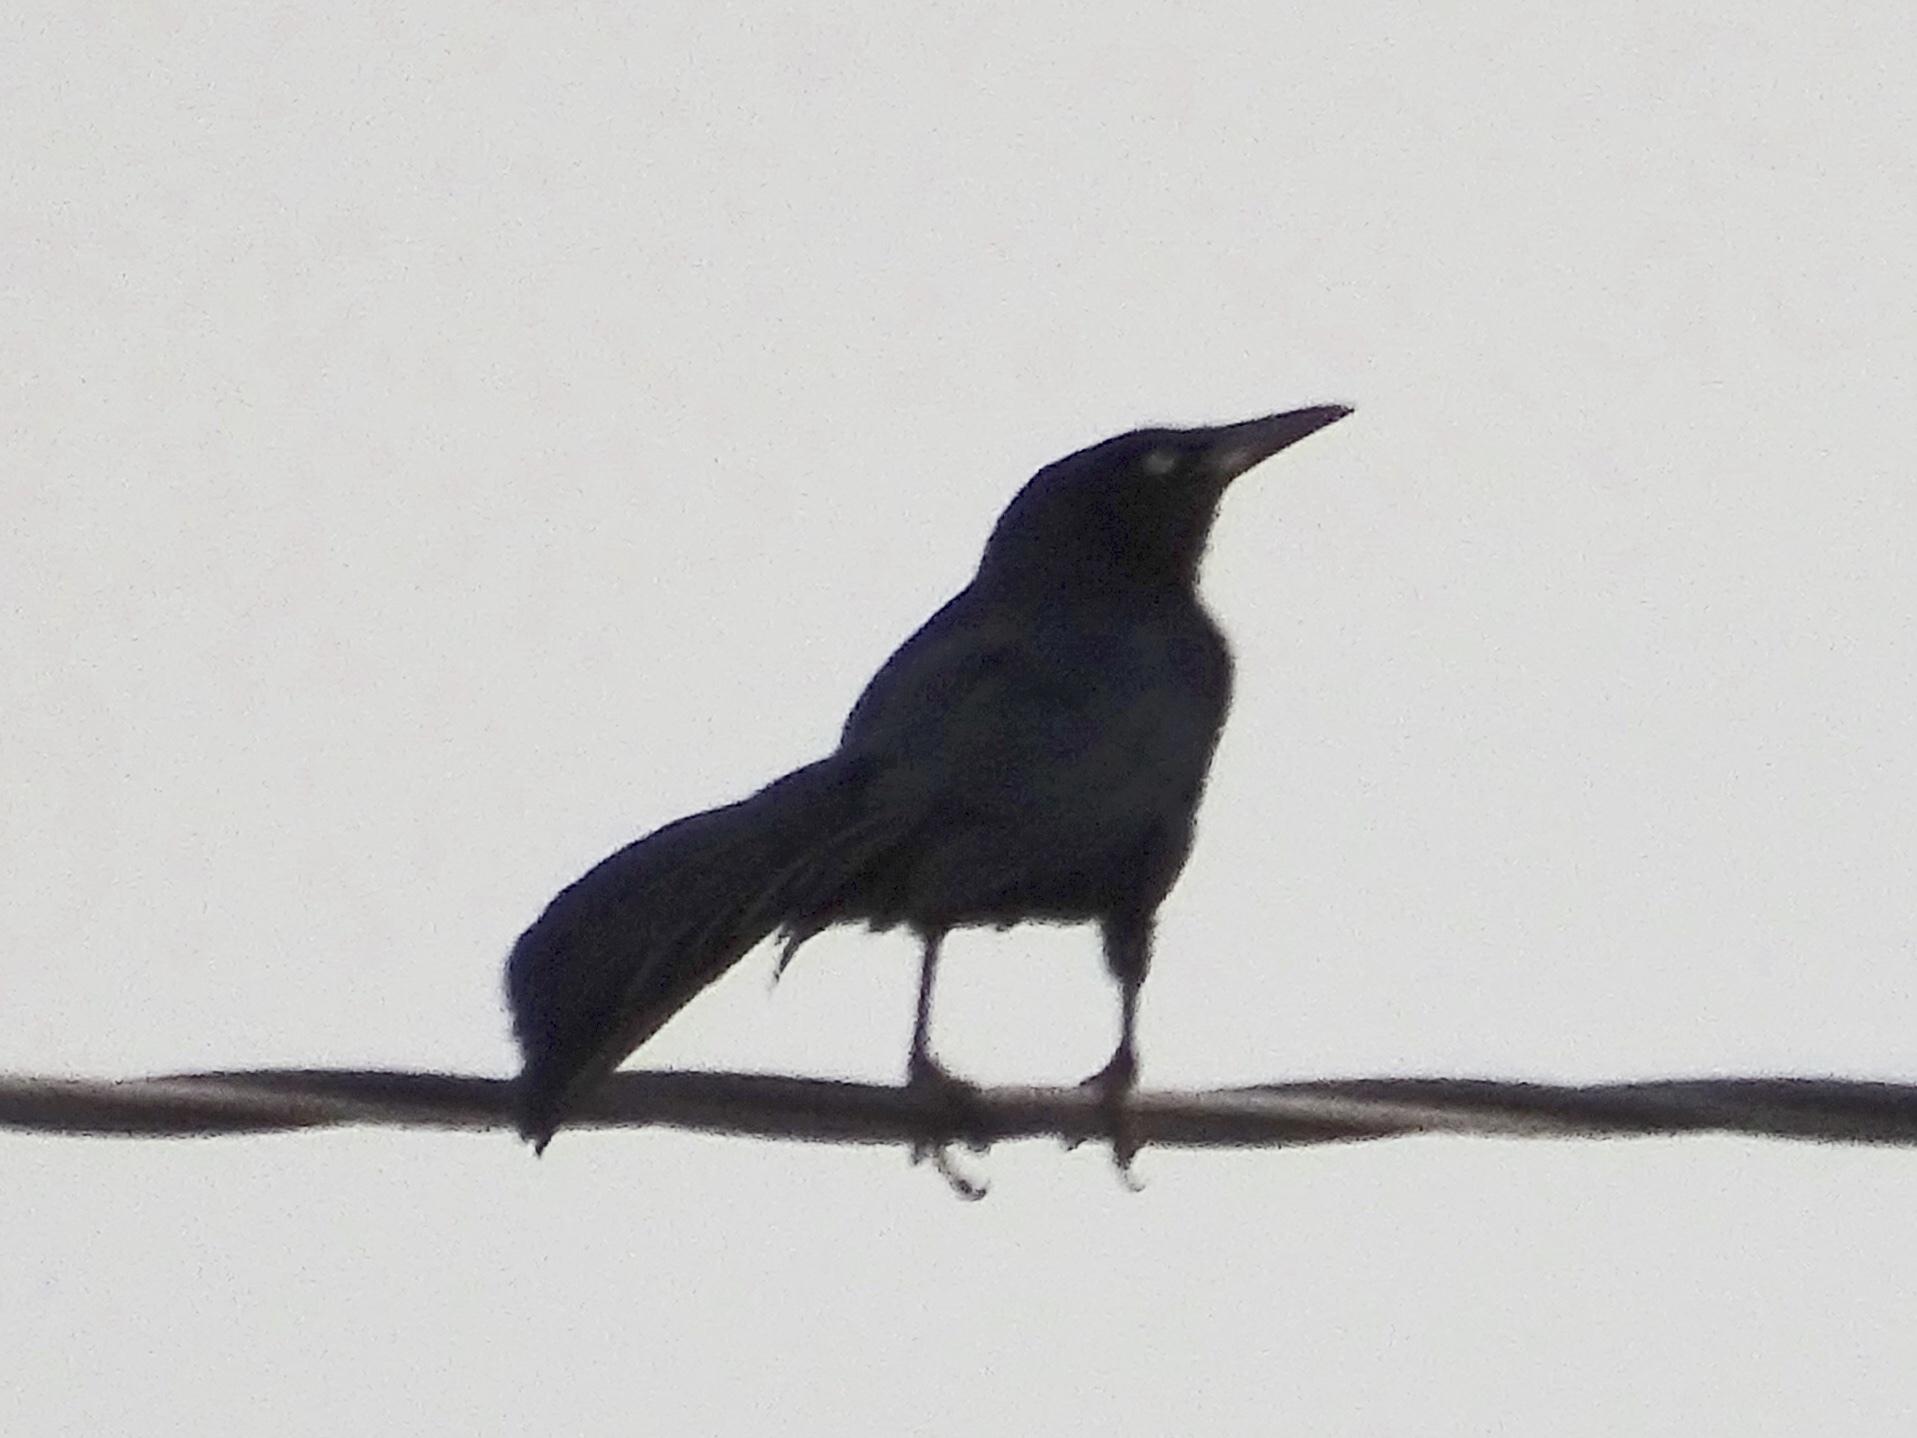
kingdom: Animalia
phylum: Chordata
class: Aves
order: Passeriformes
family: Icteridae
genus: Quiscalus
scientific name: Quiscalus mexicanus
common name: Great-tailed grackle
